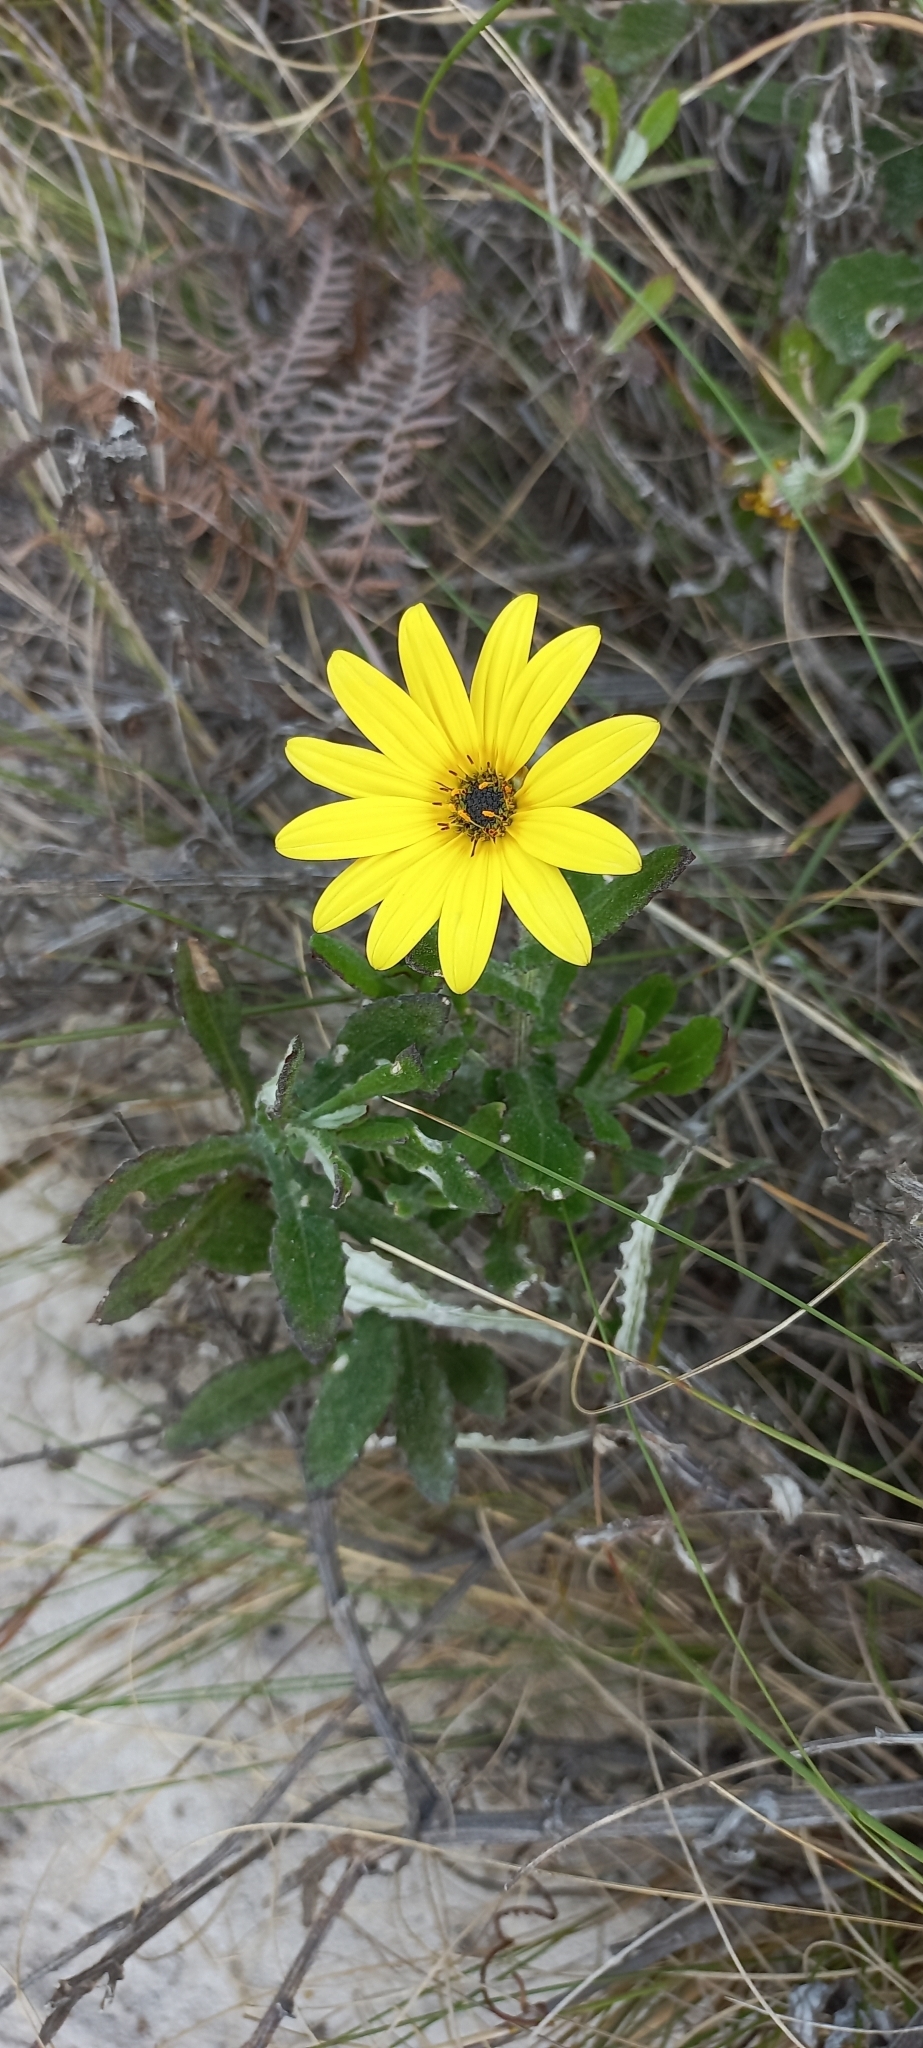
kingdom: Plantae
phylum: Tracheophyta
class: Magnoliopsida
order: Asterales
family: Asteraceae
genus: Arctotis
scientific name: Arctotis scabra
